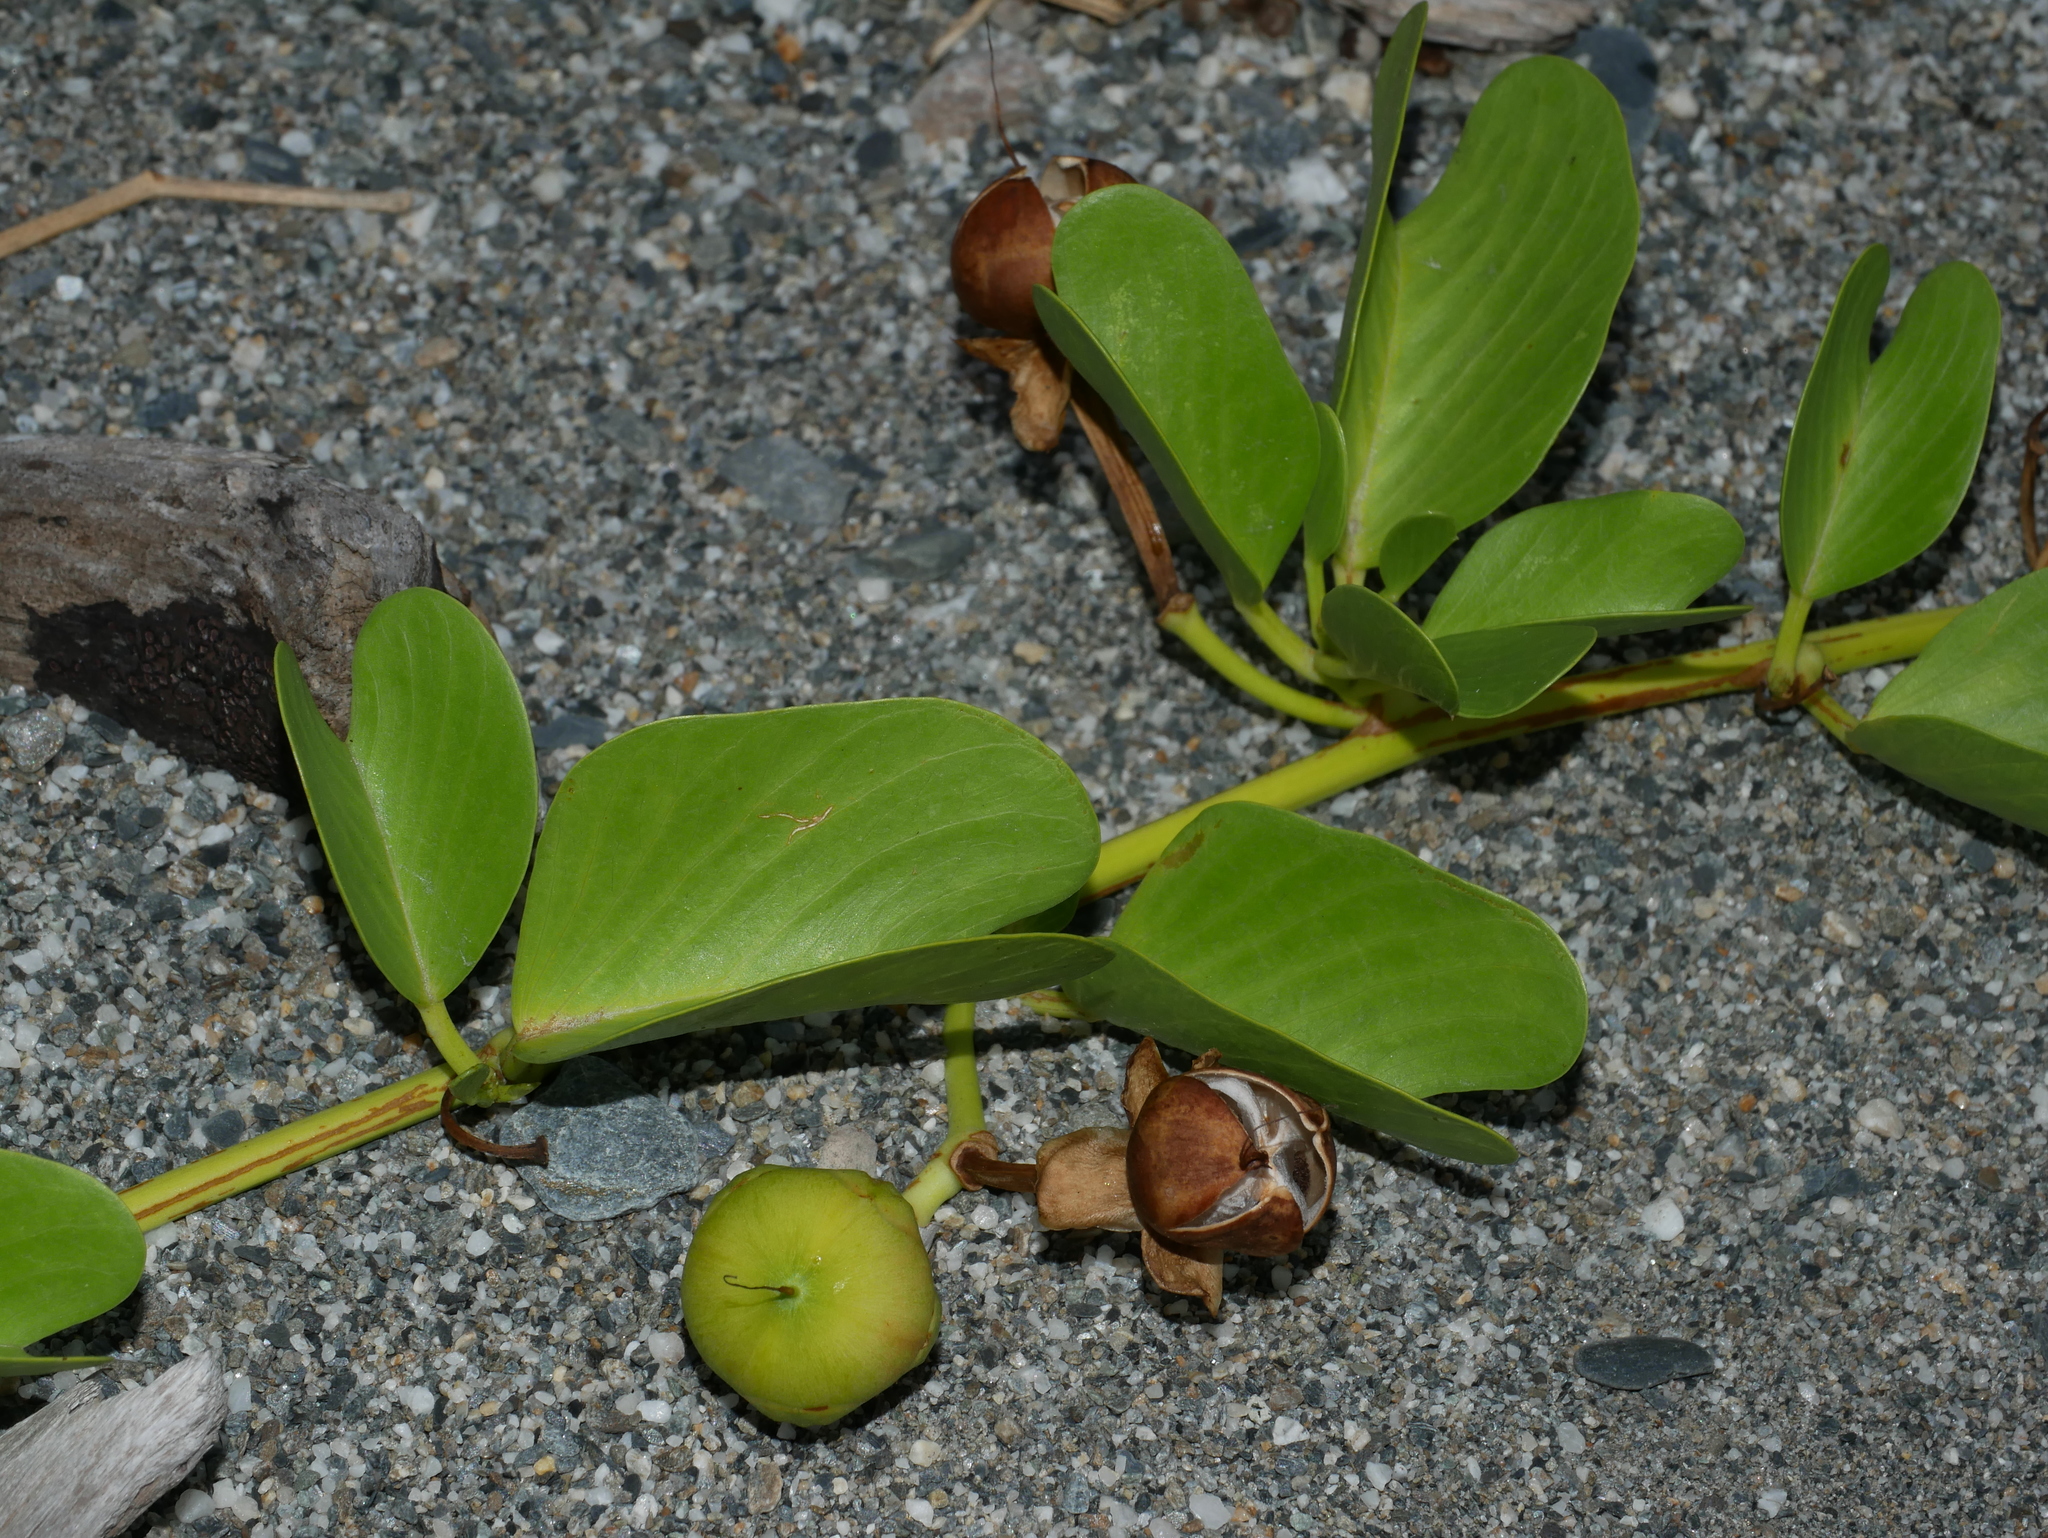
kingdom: Plantae
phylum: Tracheophyta
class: Magnoliopsida
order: Solanales
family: Convolvulaceae
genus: Ipomoea
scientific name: Ipomoea pes-caprae
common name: Beach morning glory
